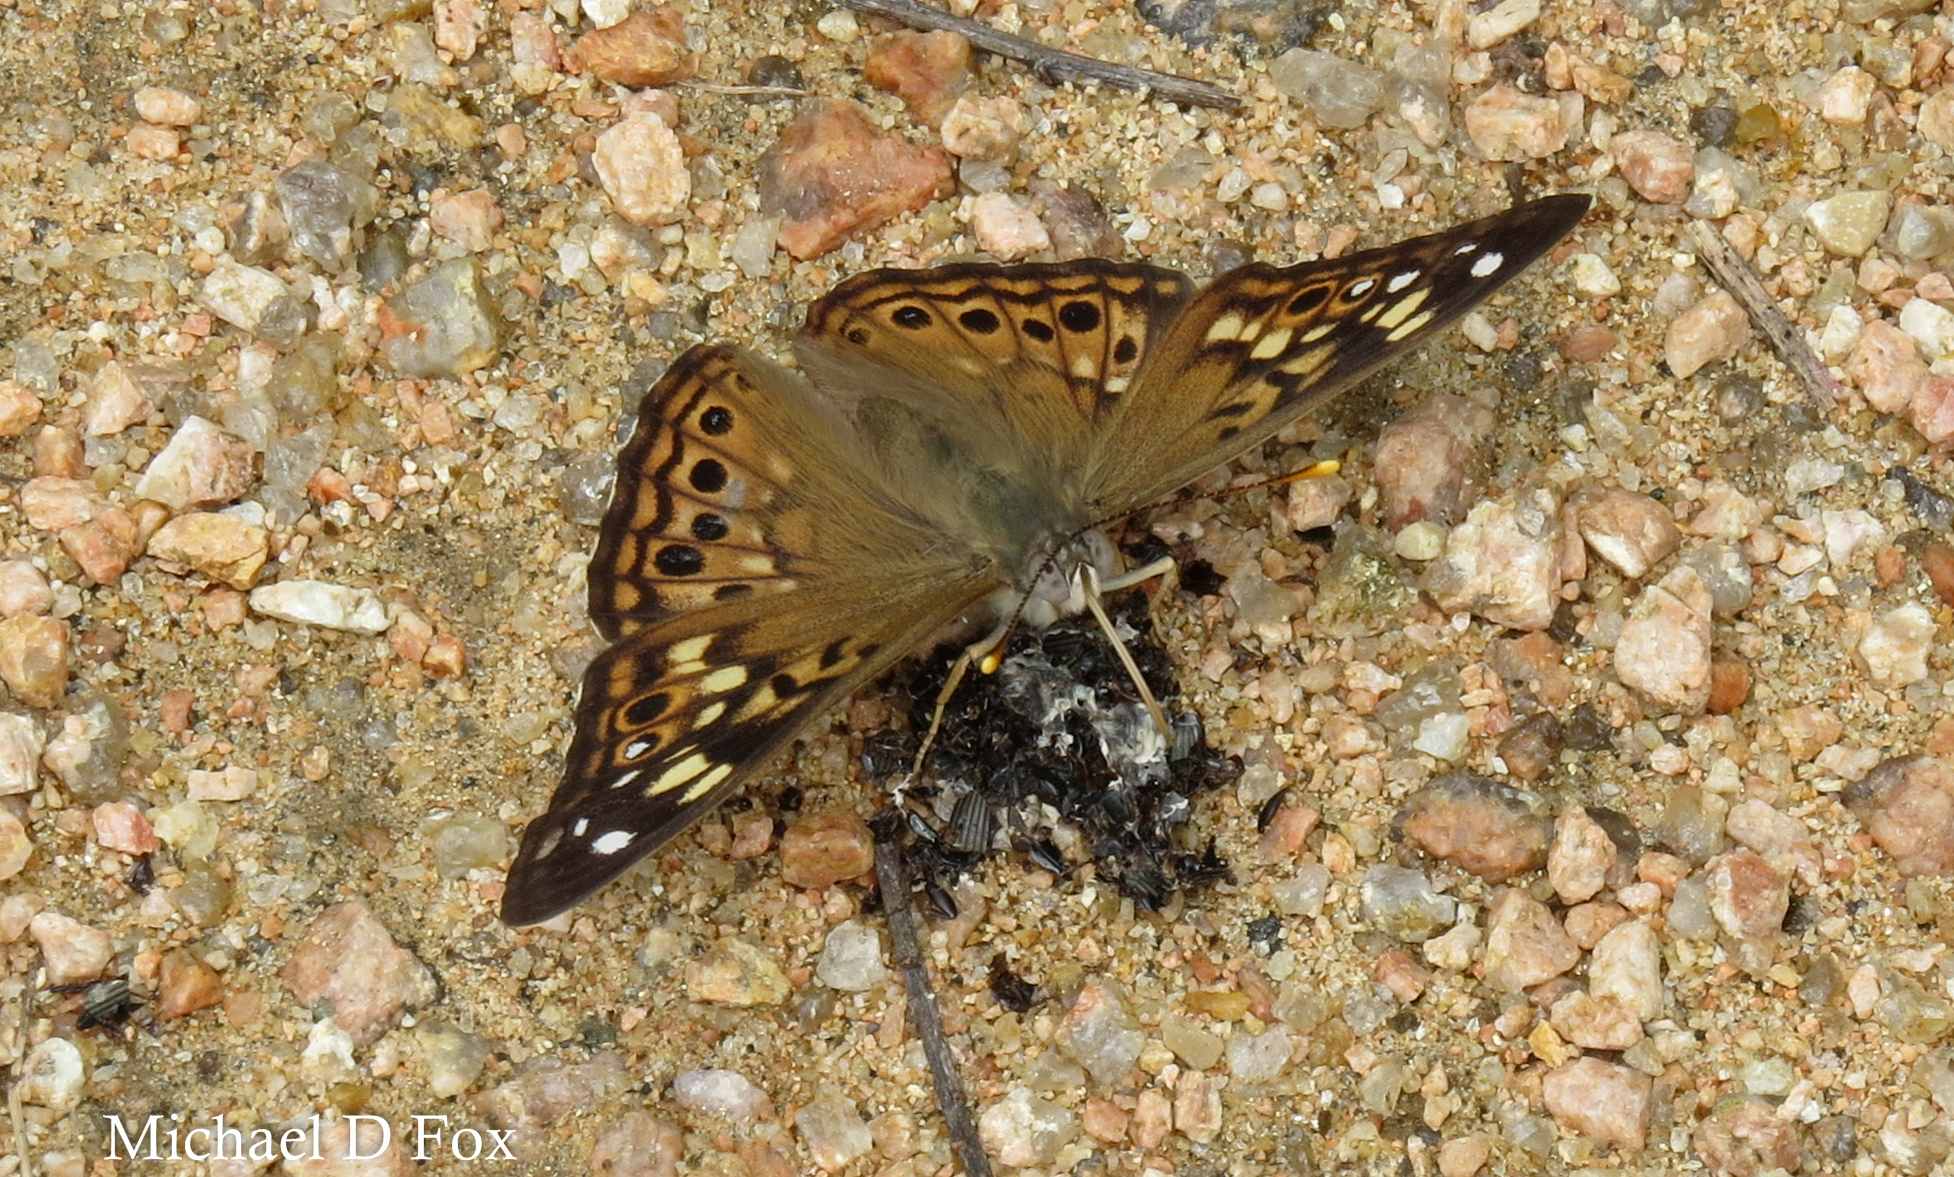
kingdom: Animalia
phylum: Arthropoda
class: Insecta
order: Lepidoptera
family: Nymphalidae
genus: Asterocampa
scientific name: Asterocampa celtis
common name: Hackberry emperor
